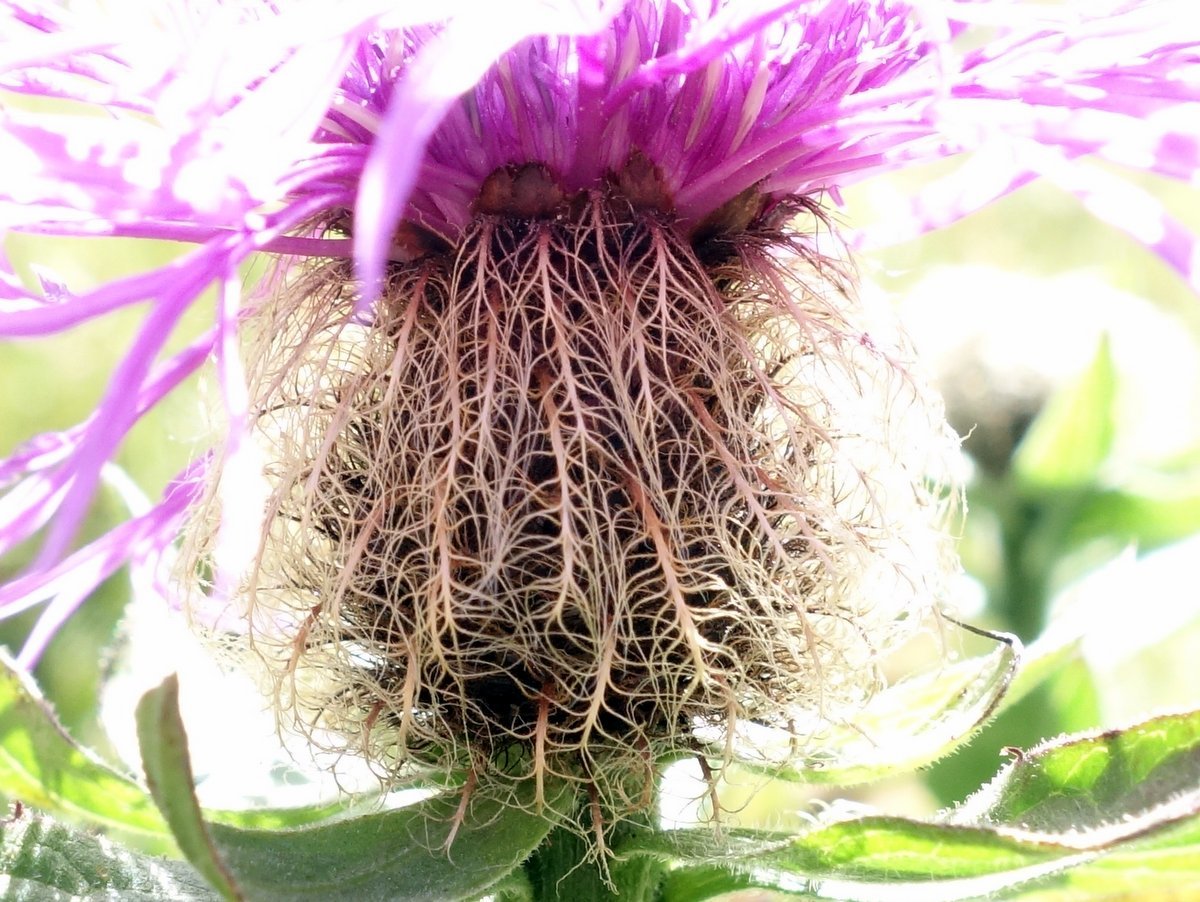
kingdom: Plantae
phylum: Tracheophyta
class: Magnoliopsida
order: Asterales
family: Asteraceae
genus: Centaurea
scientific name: Centaurea nervosa
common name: Singleflower knapweed
